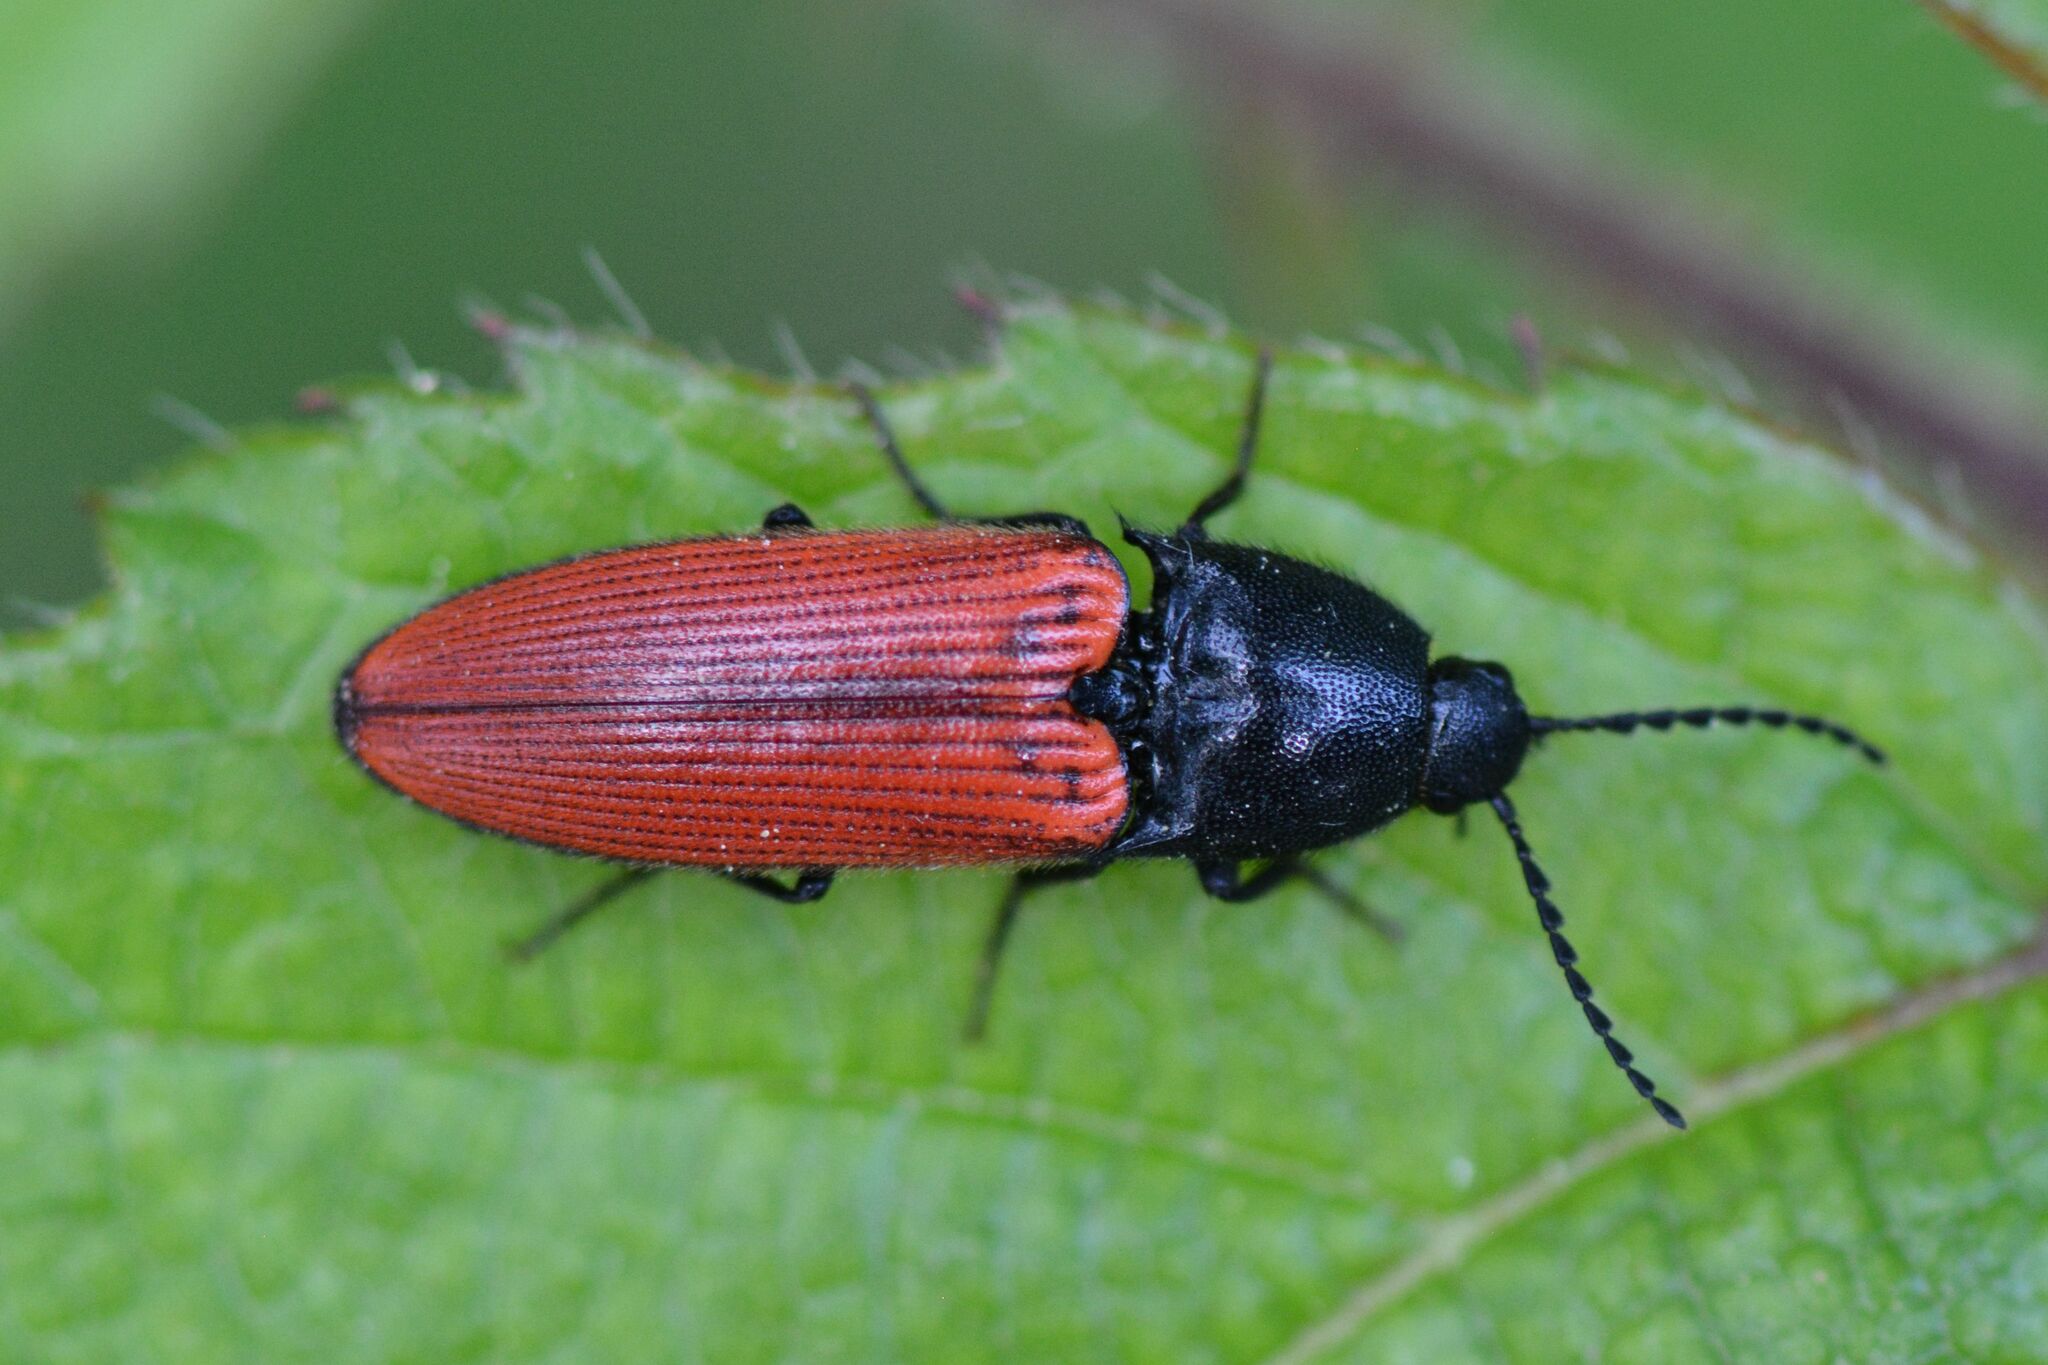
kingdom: Animalia
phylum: Arthropoda
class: Insecta
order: Coleoptera
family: Elateridae
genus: Ampedus
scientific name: Ampedus sanguineus
